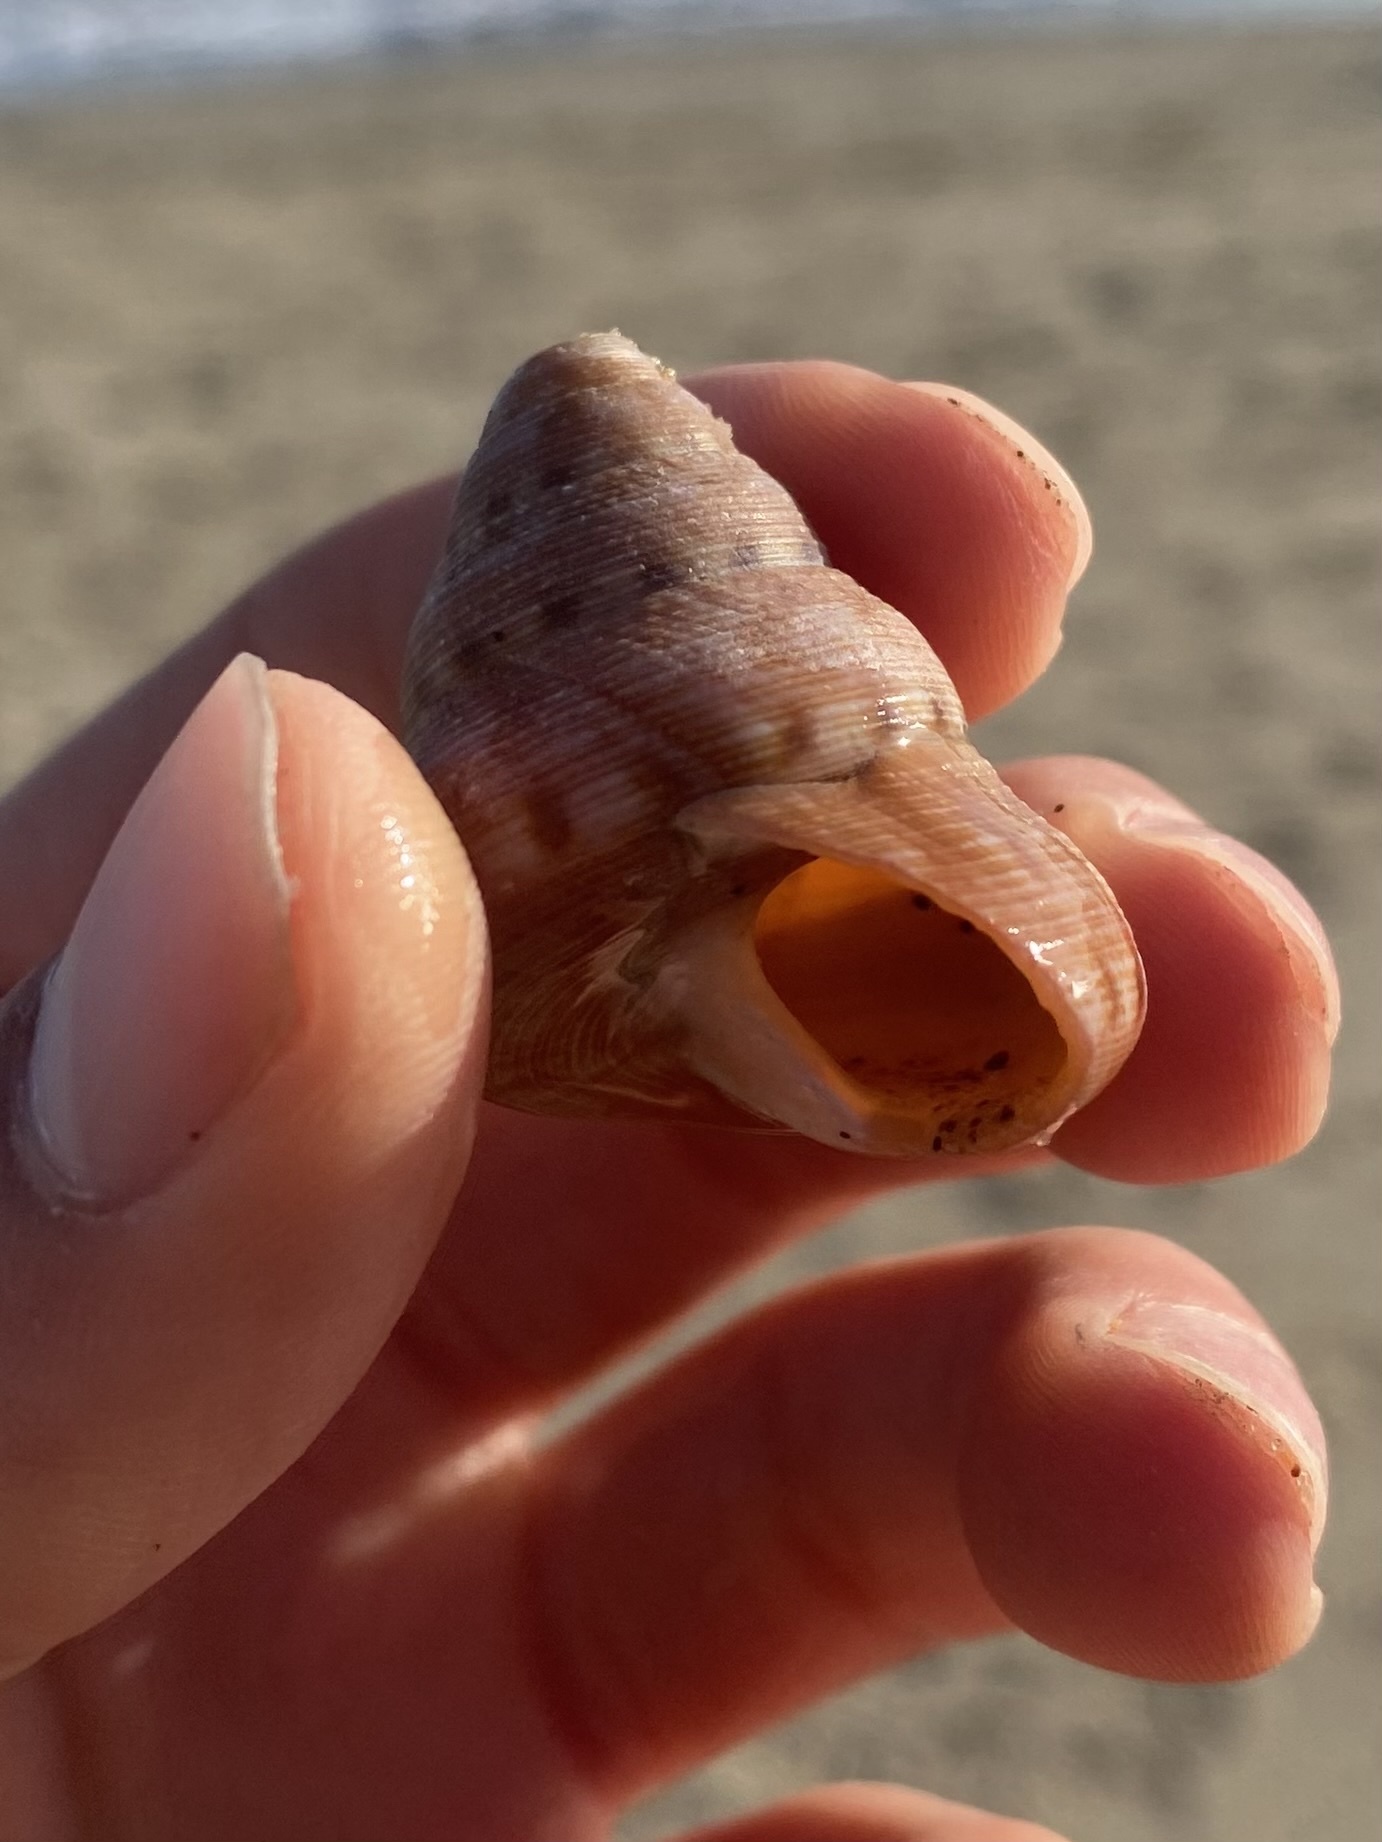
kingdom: Animalia
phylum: Mollusca
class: Gastropoda
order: Trochida
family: Calliostomatidae
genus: Calliostoma
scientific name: Calliostoma gloriosum
